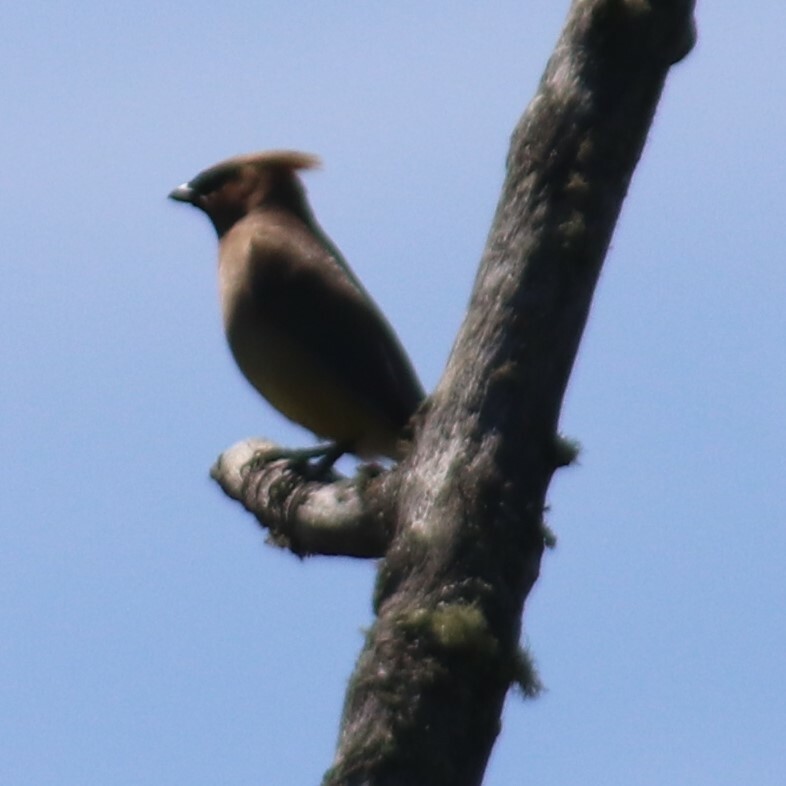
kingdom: Animalia
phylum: Chordata
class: Aves
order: Passeriformes
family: Bombycillidae
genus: Bombycilla
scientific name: Bombycilla cedrorum
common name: Cedar waxwing
